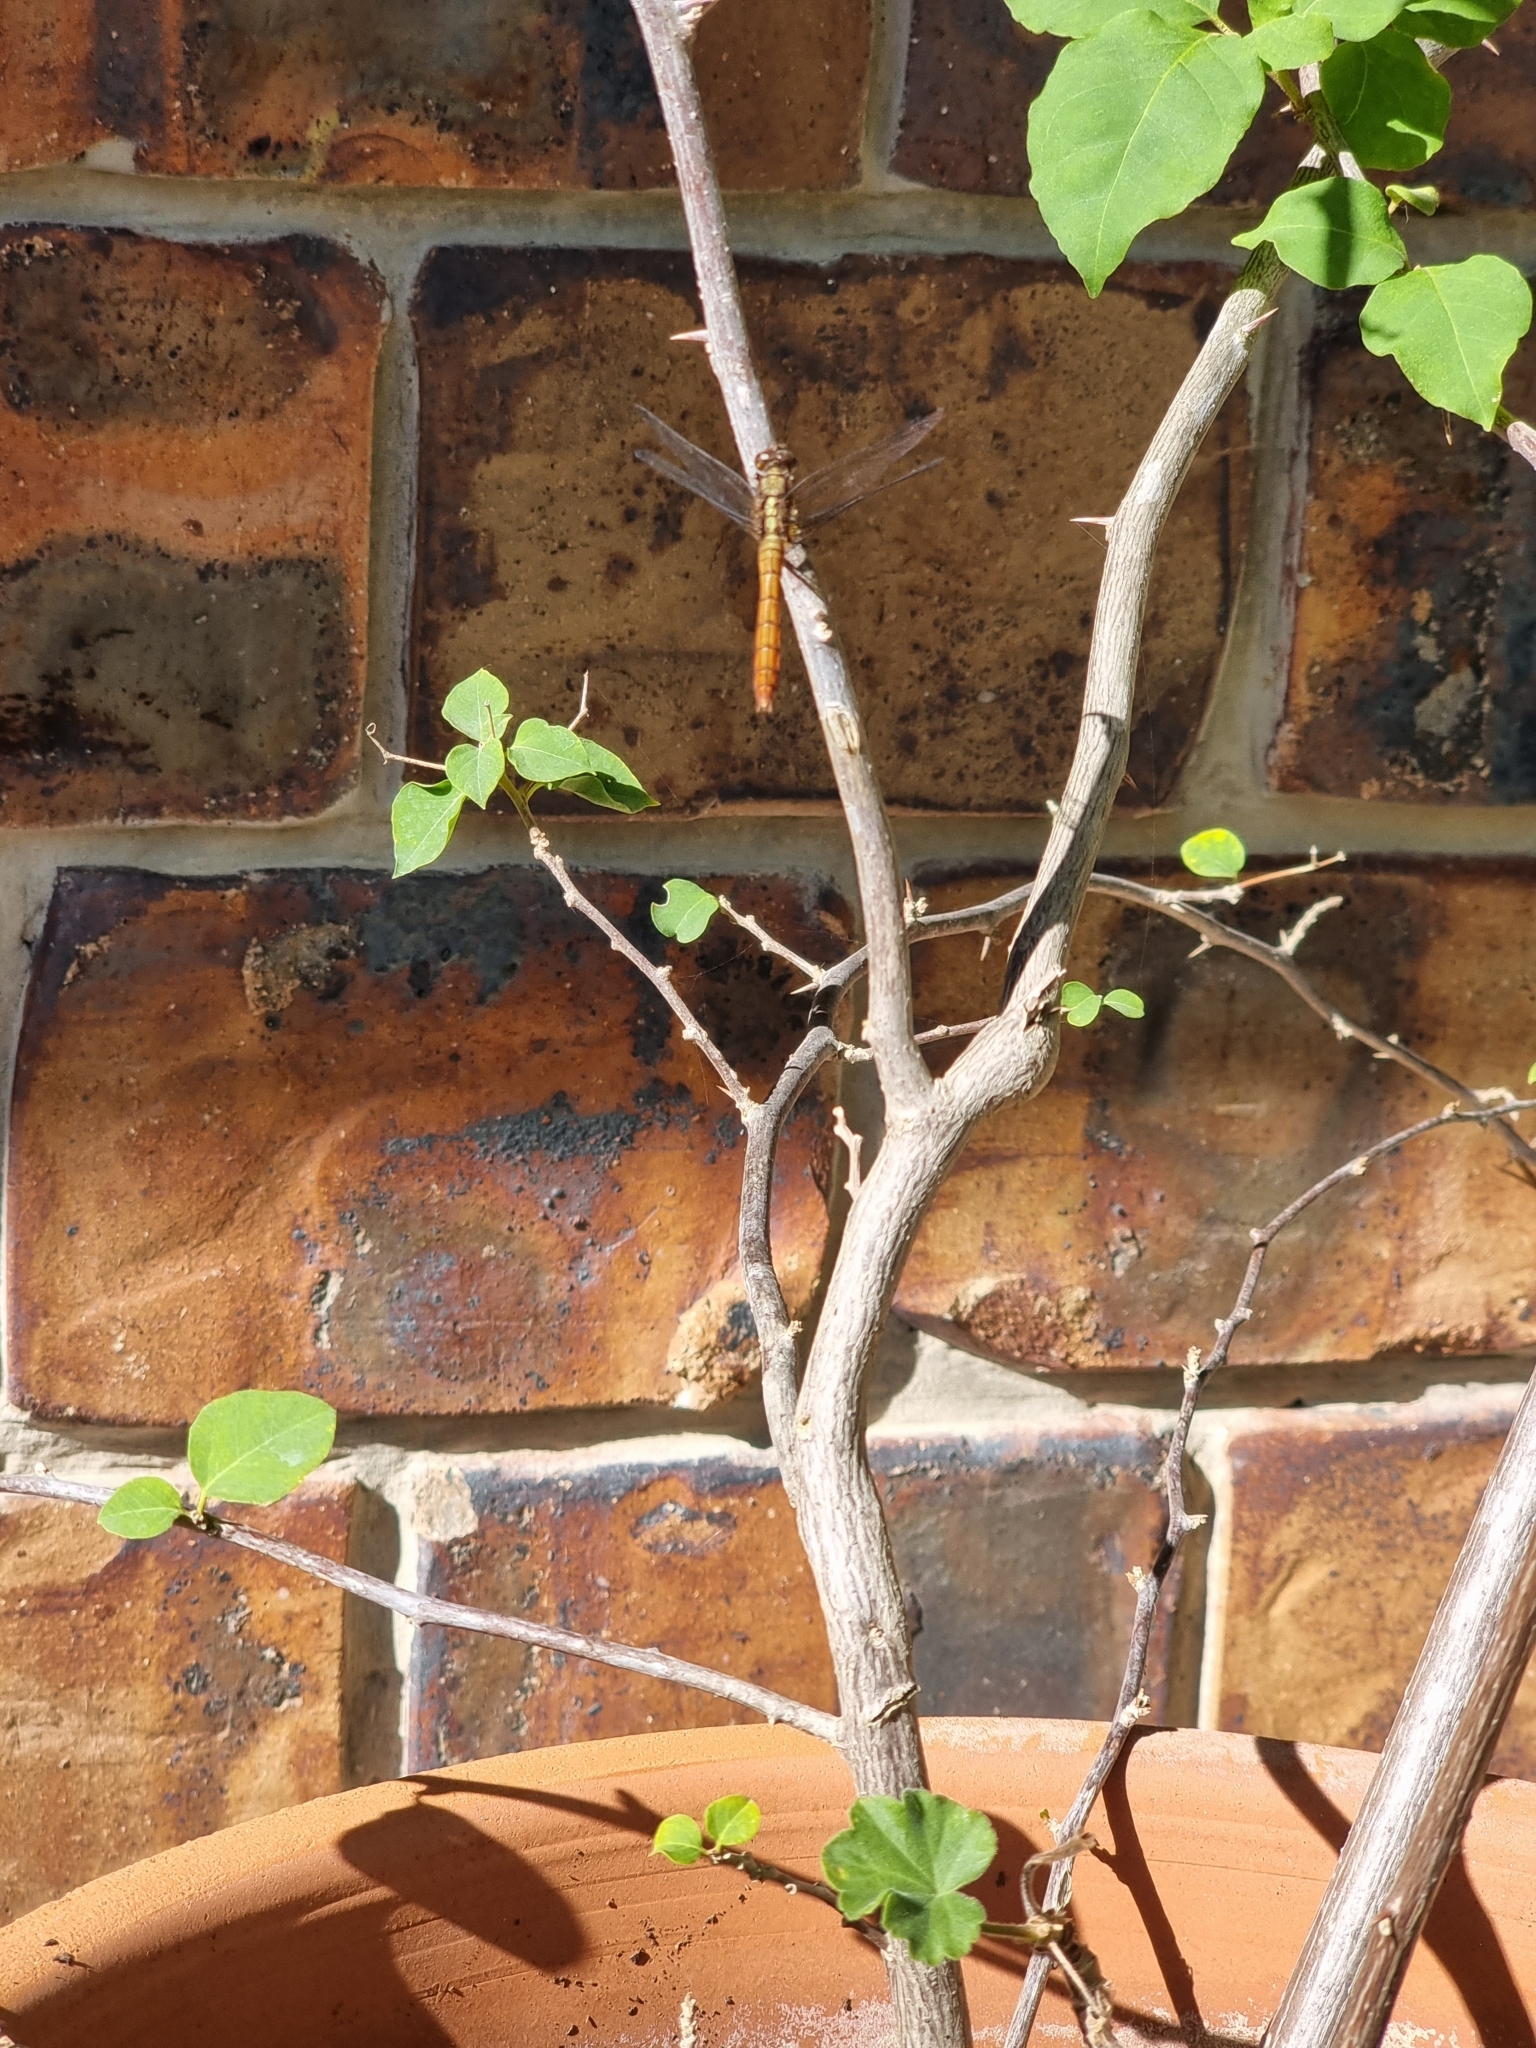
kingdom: Animalia
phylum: Arthropoda
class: Insecta
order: Odonata
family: Libellulidae
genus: Orthetrum
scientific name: Orthetrum villosovittatum
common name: Firery skimmer
